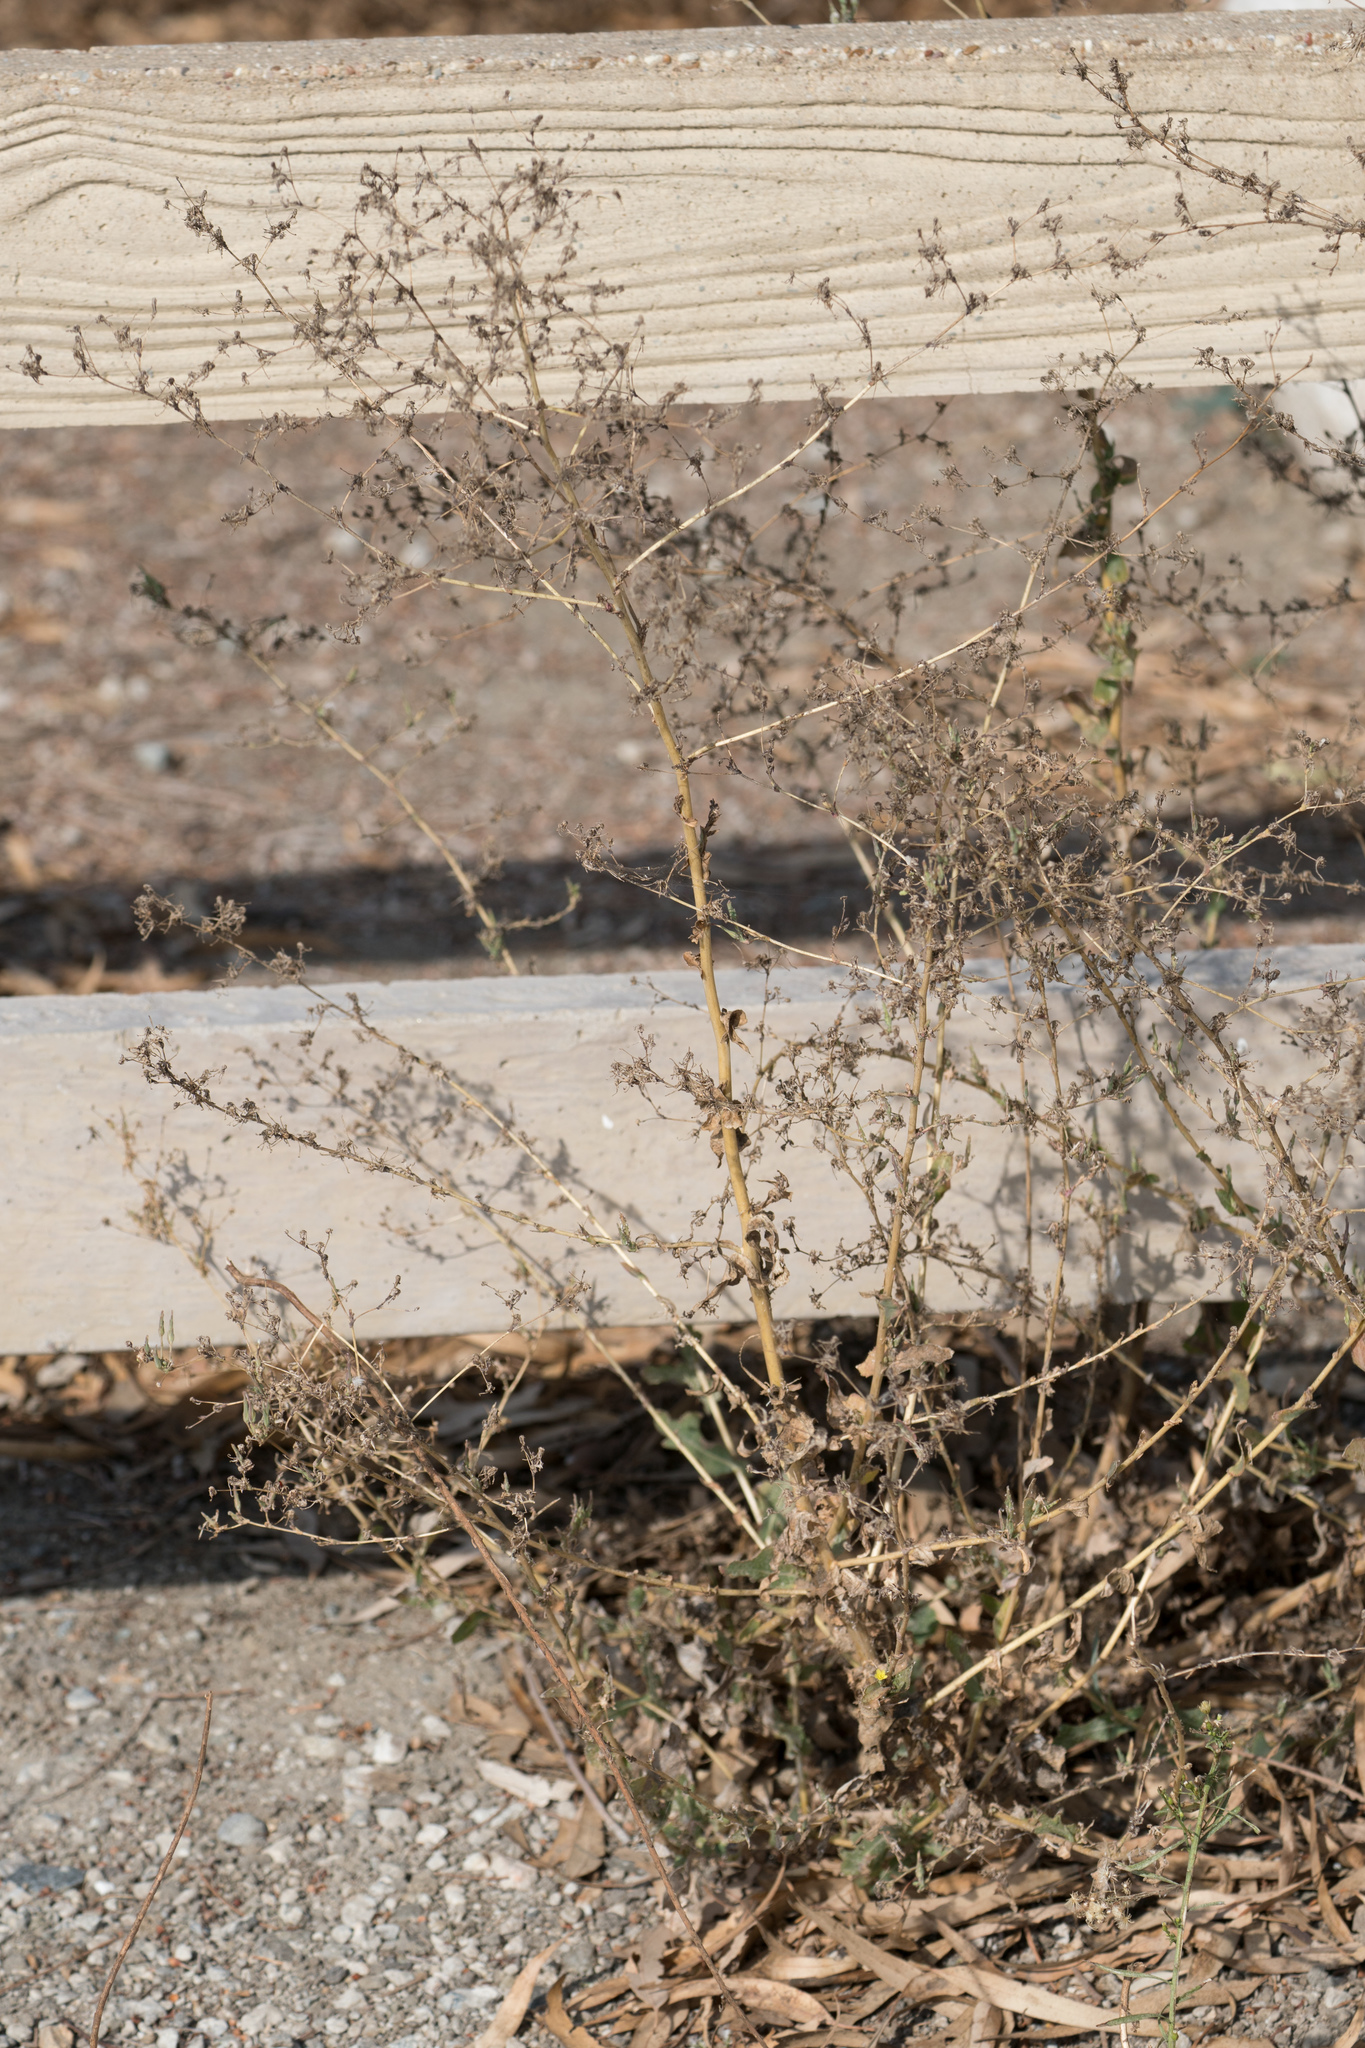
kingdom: Plantae
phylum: Tracheophyta
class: Magnoliopsida
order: Asterales
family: Asteraceae
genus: Lactuca
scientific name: Lactuca serriola
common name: Prickly lettuce
